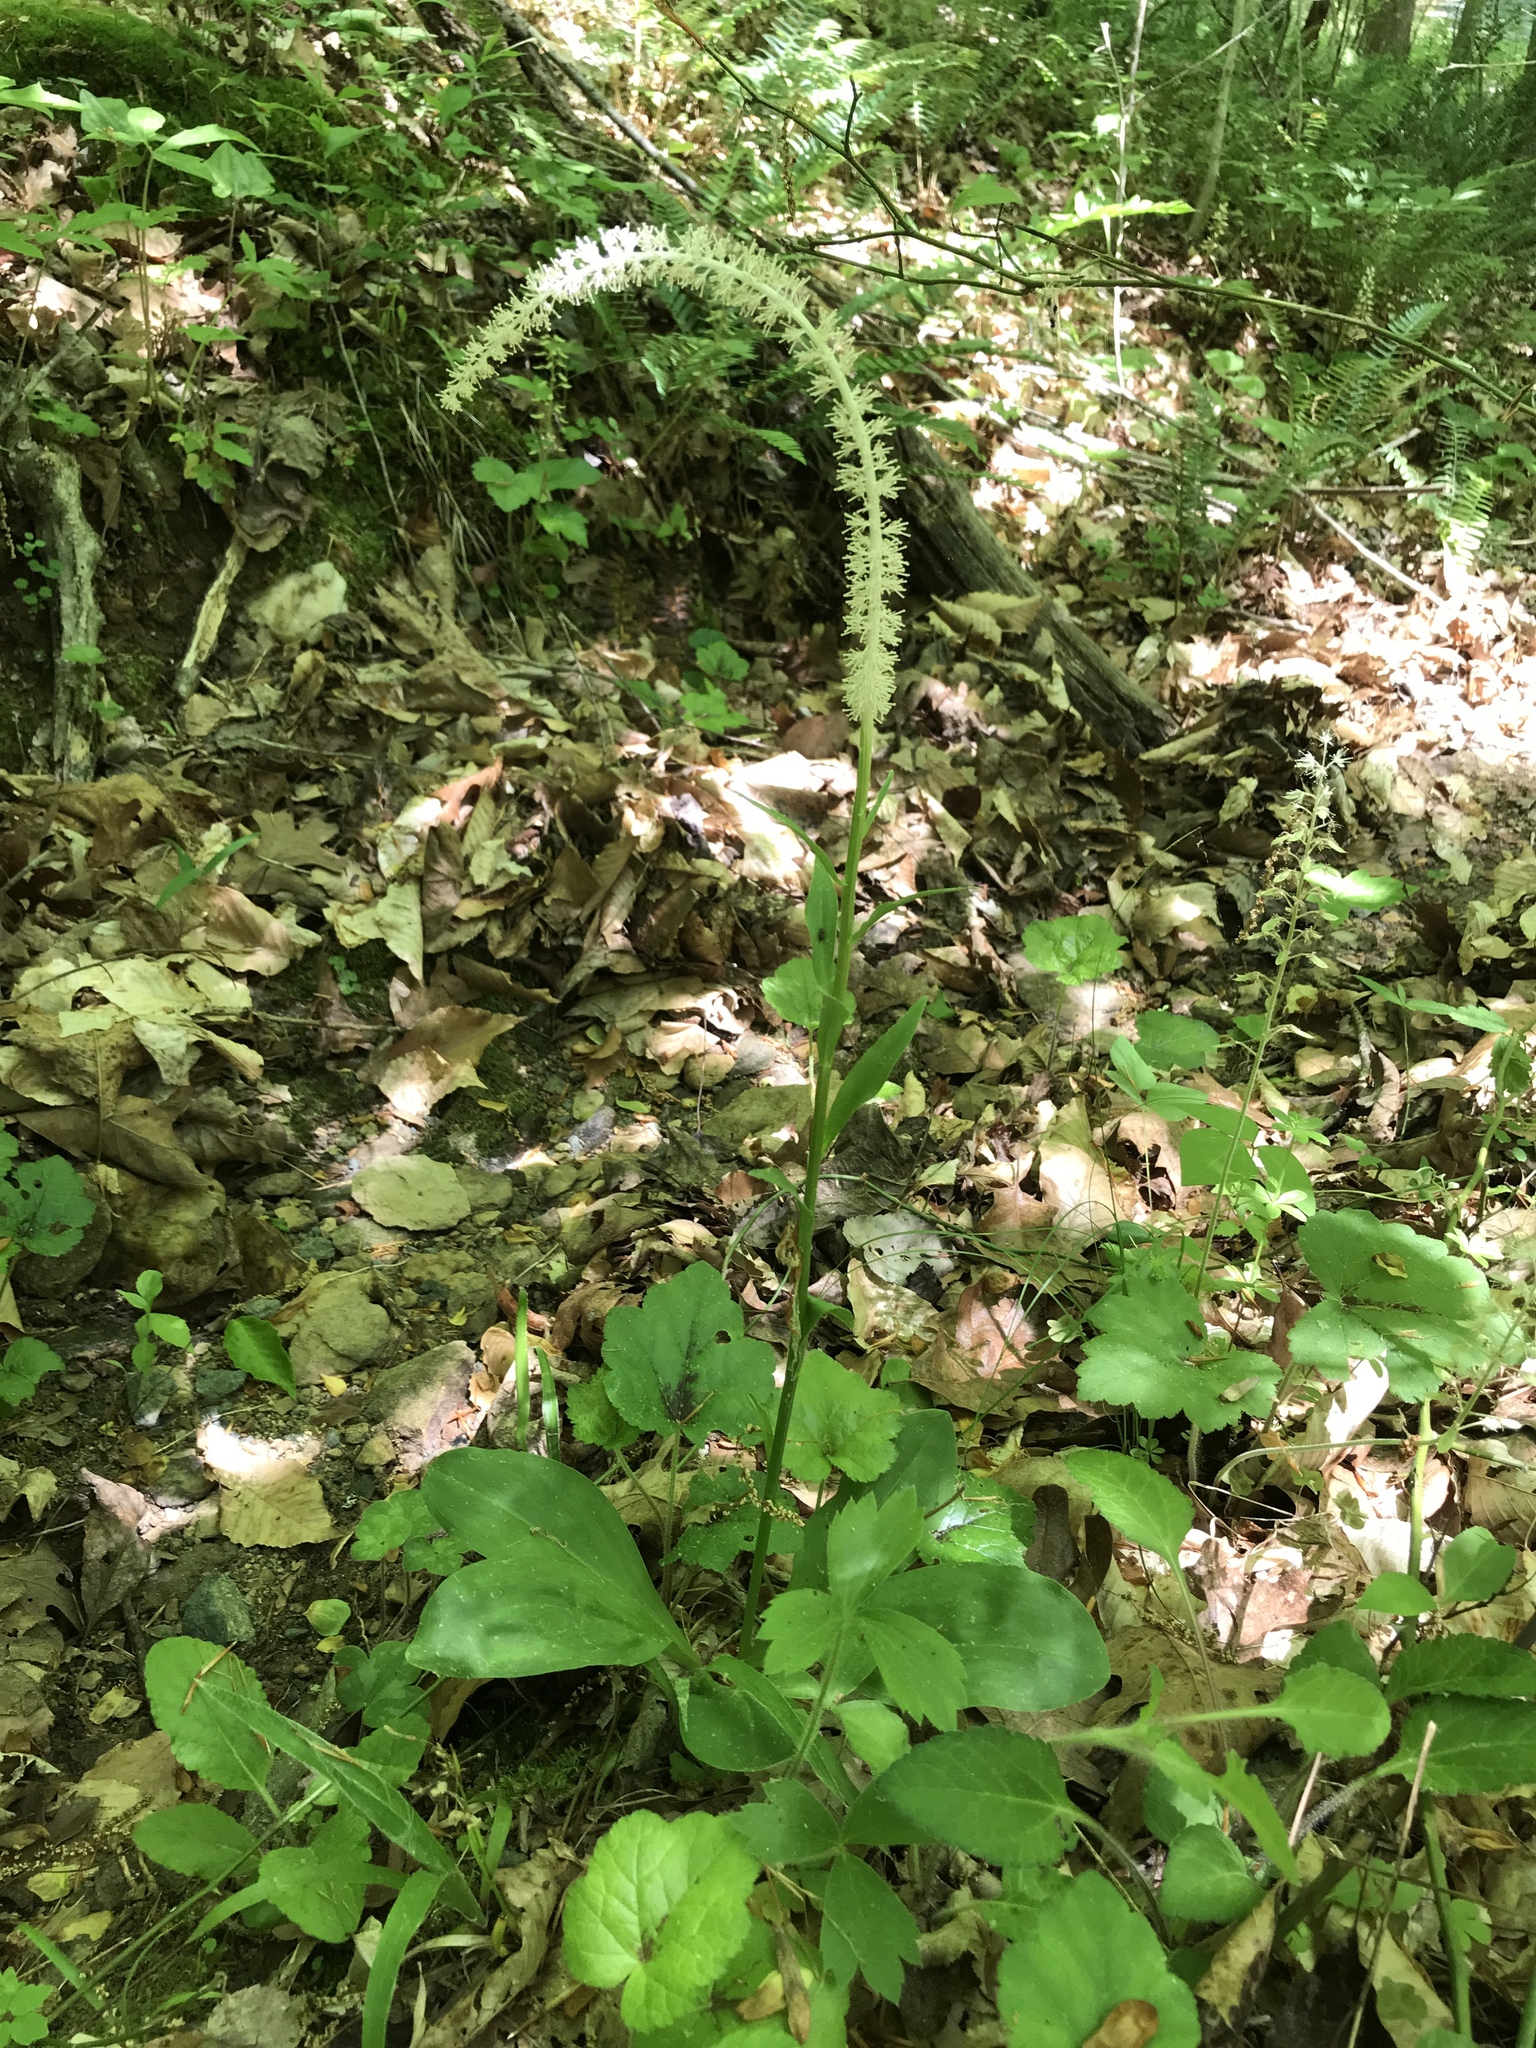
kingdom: Plantae
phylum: Tracheophyta
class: Liliopsida
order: Liliales
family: Melanthiaceae
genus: Chamaelirium
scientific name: Chamaelirium luteum
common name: Fairy-wand
